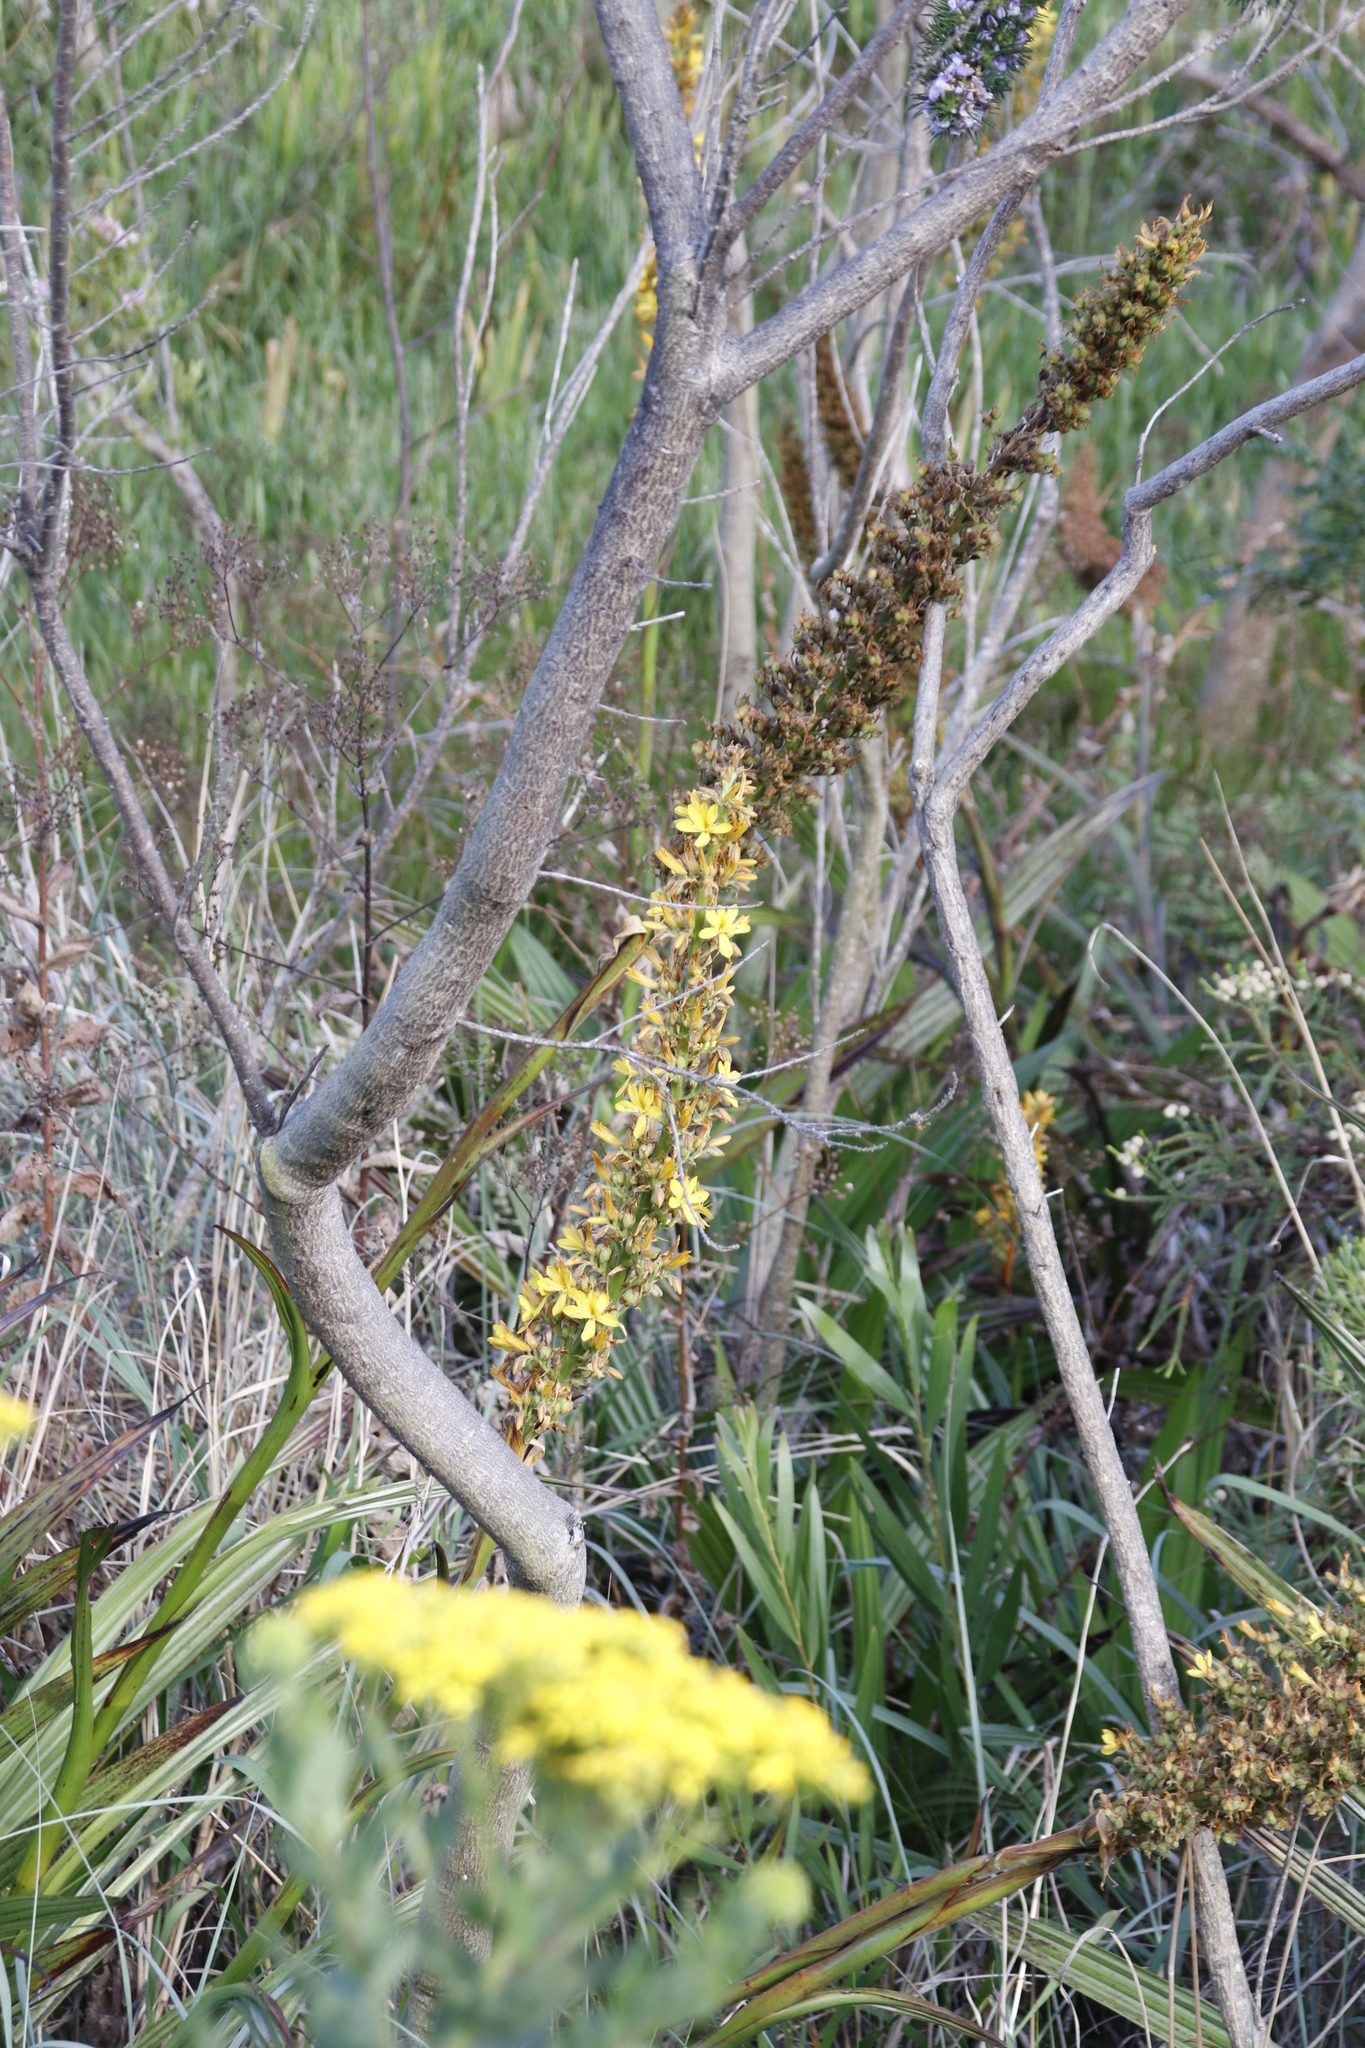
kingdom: Plantae
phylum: Tracheophyta
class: Liliopsida
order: Commelinales
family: Haemodoraceae
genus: Wachendorfia
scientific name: Wachendorfia thyrsiflora
